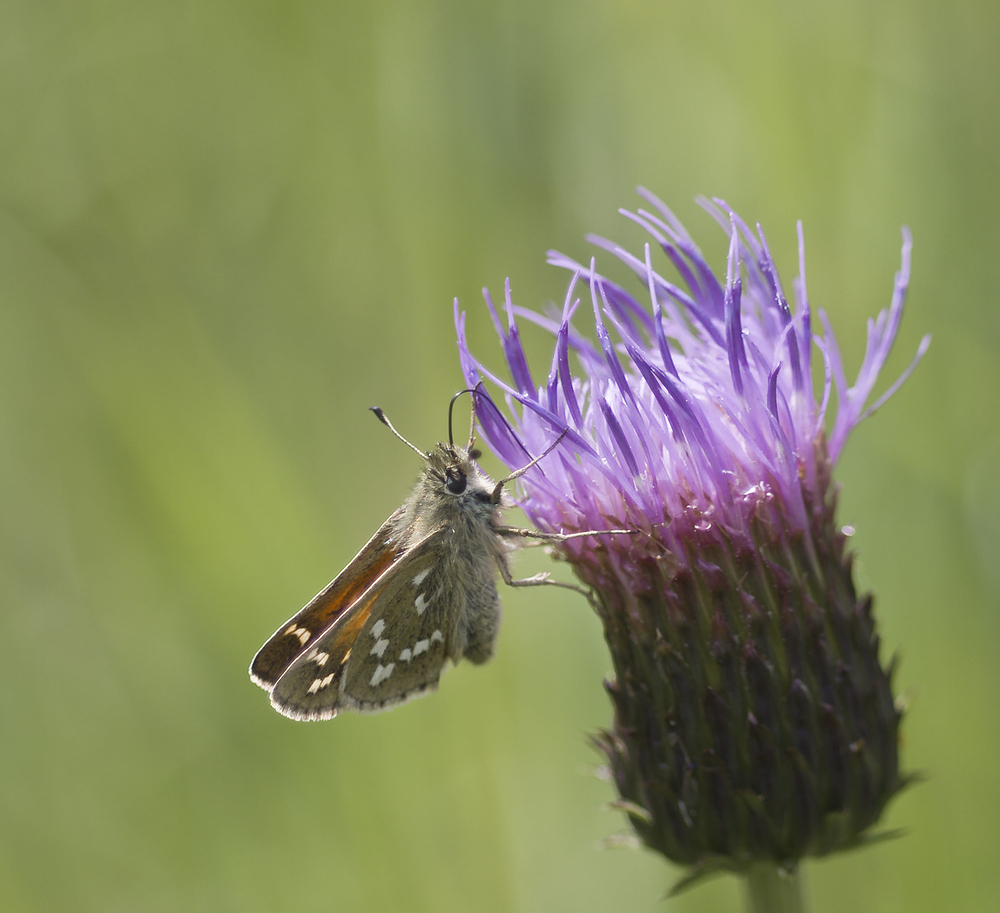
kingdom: Animalia
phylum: Arthropoda
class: Insecta
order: Lepidoptera
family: Hesperiidae
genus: Hesperia
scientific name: Hesperia comma
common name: Common branded skipper
